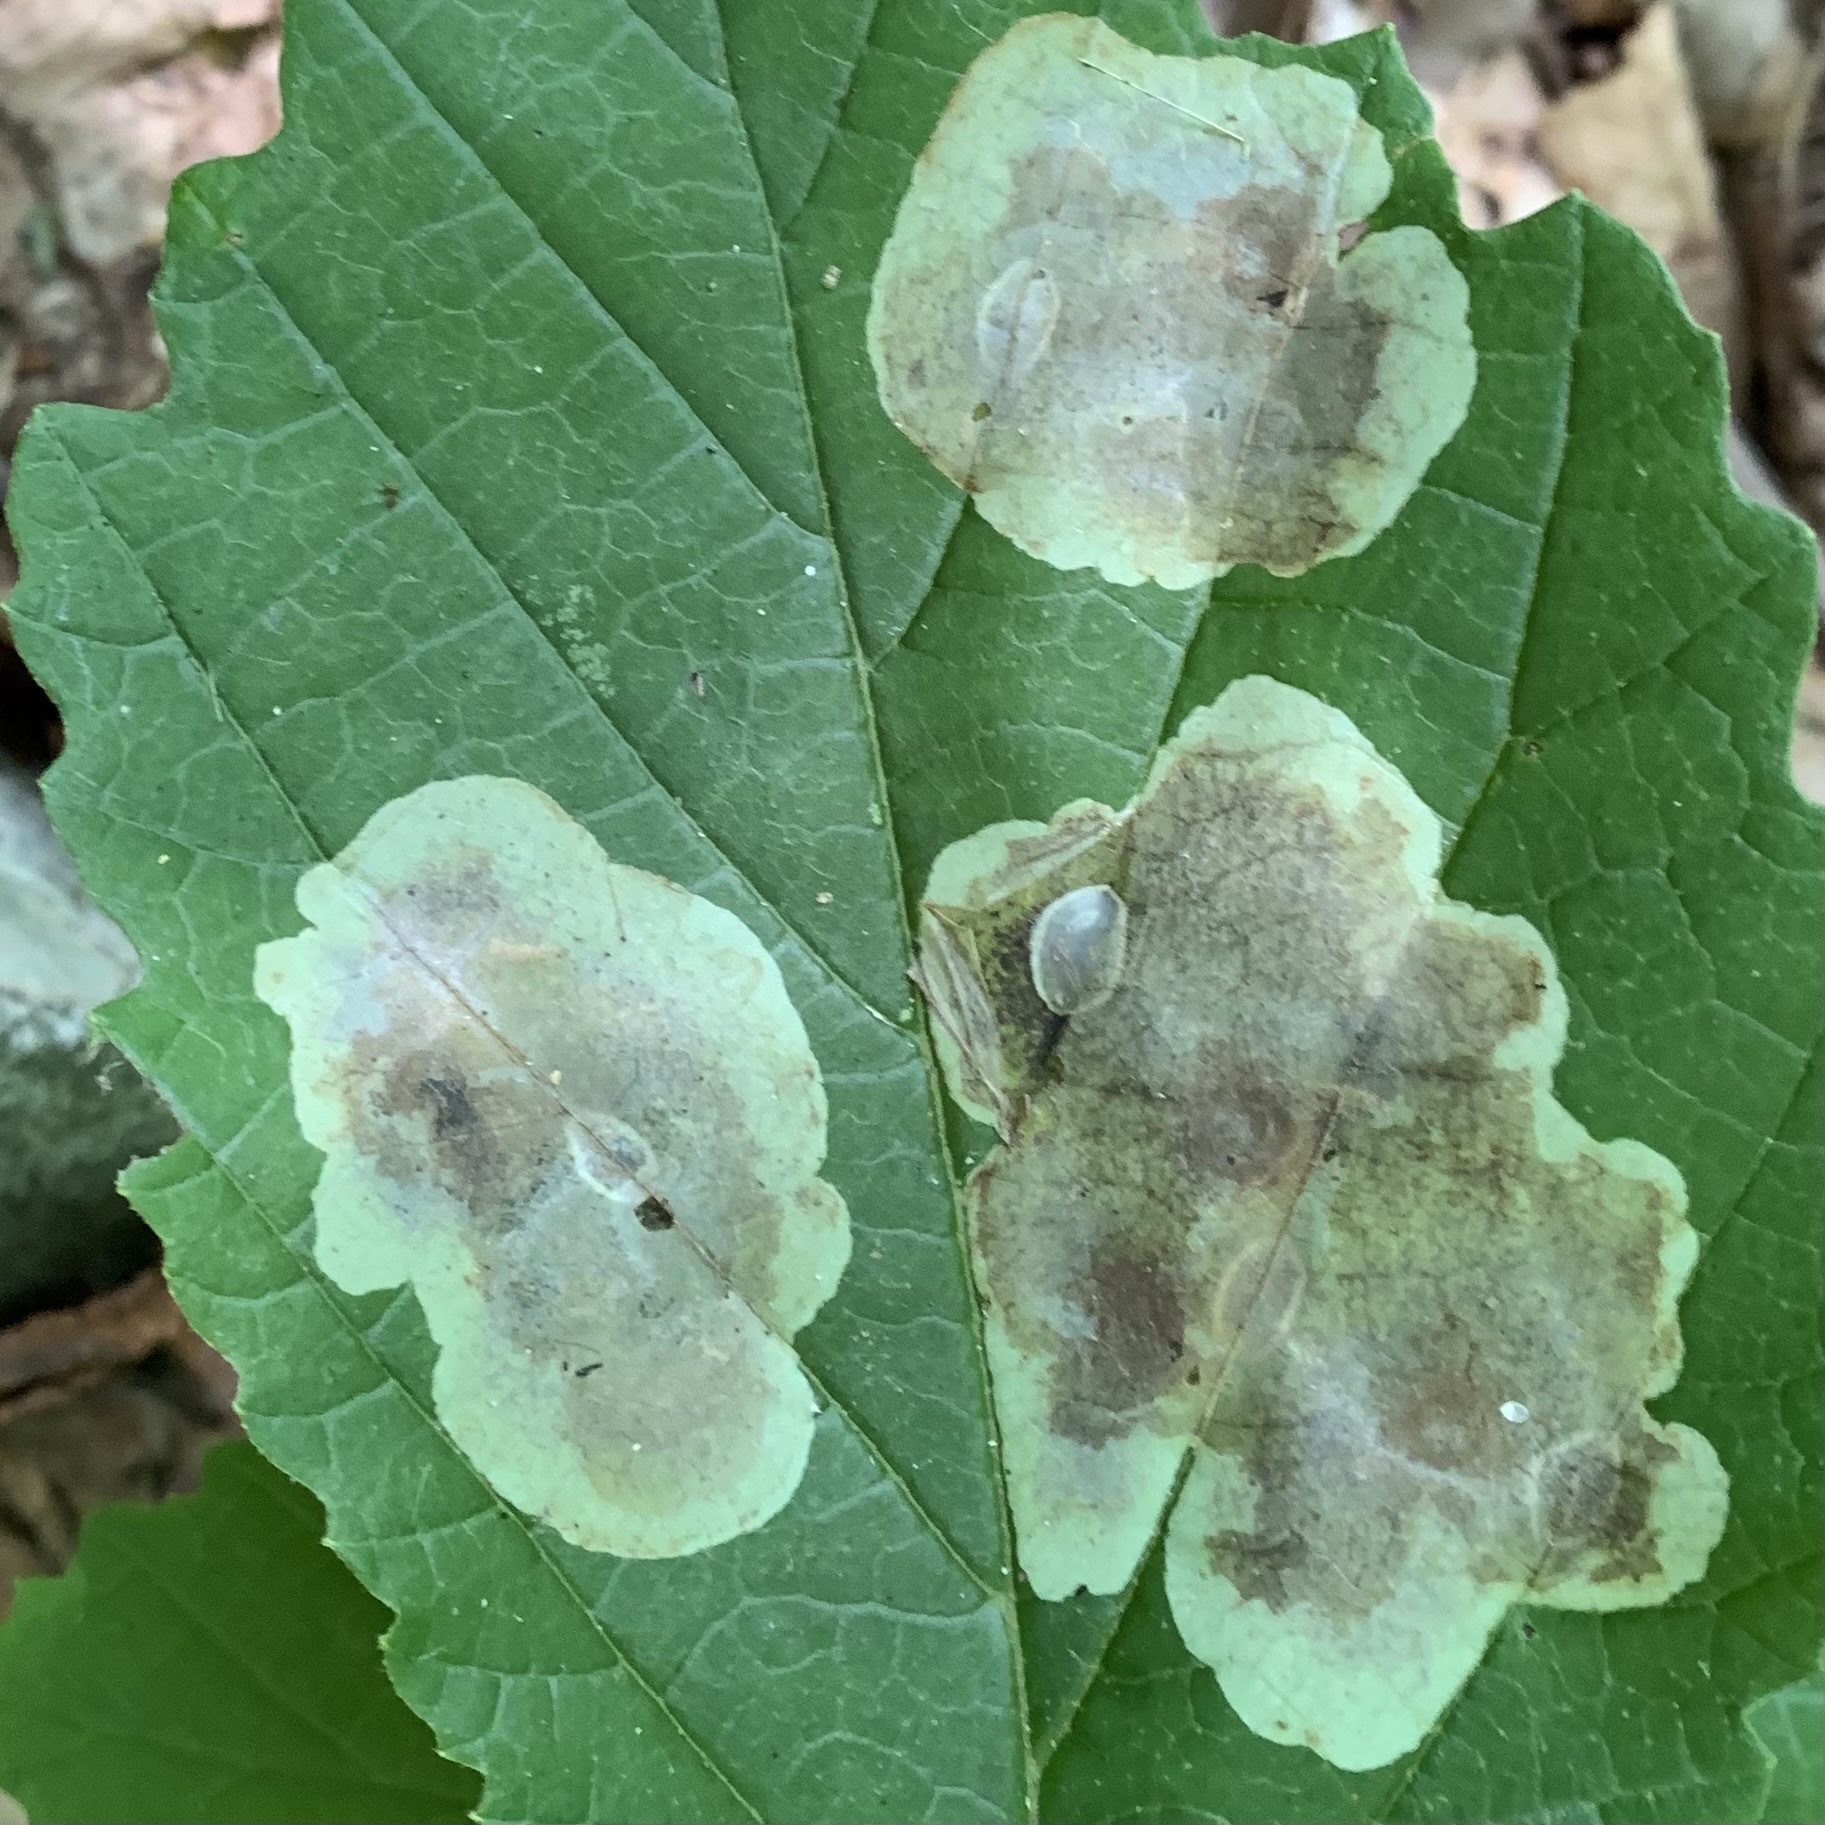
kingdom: Animalia
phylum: Arthropoda
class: Insecta
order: Lepidoptera
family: Gracillariidae
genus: Cameraria
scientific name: Cameraria hamameliella
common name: Witchhazel leafminer
